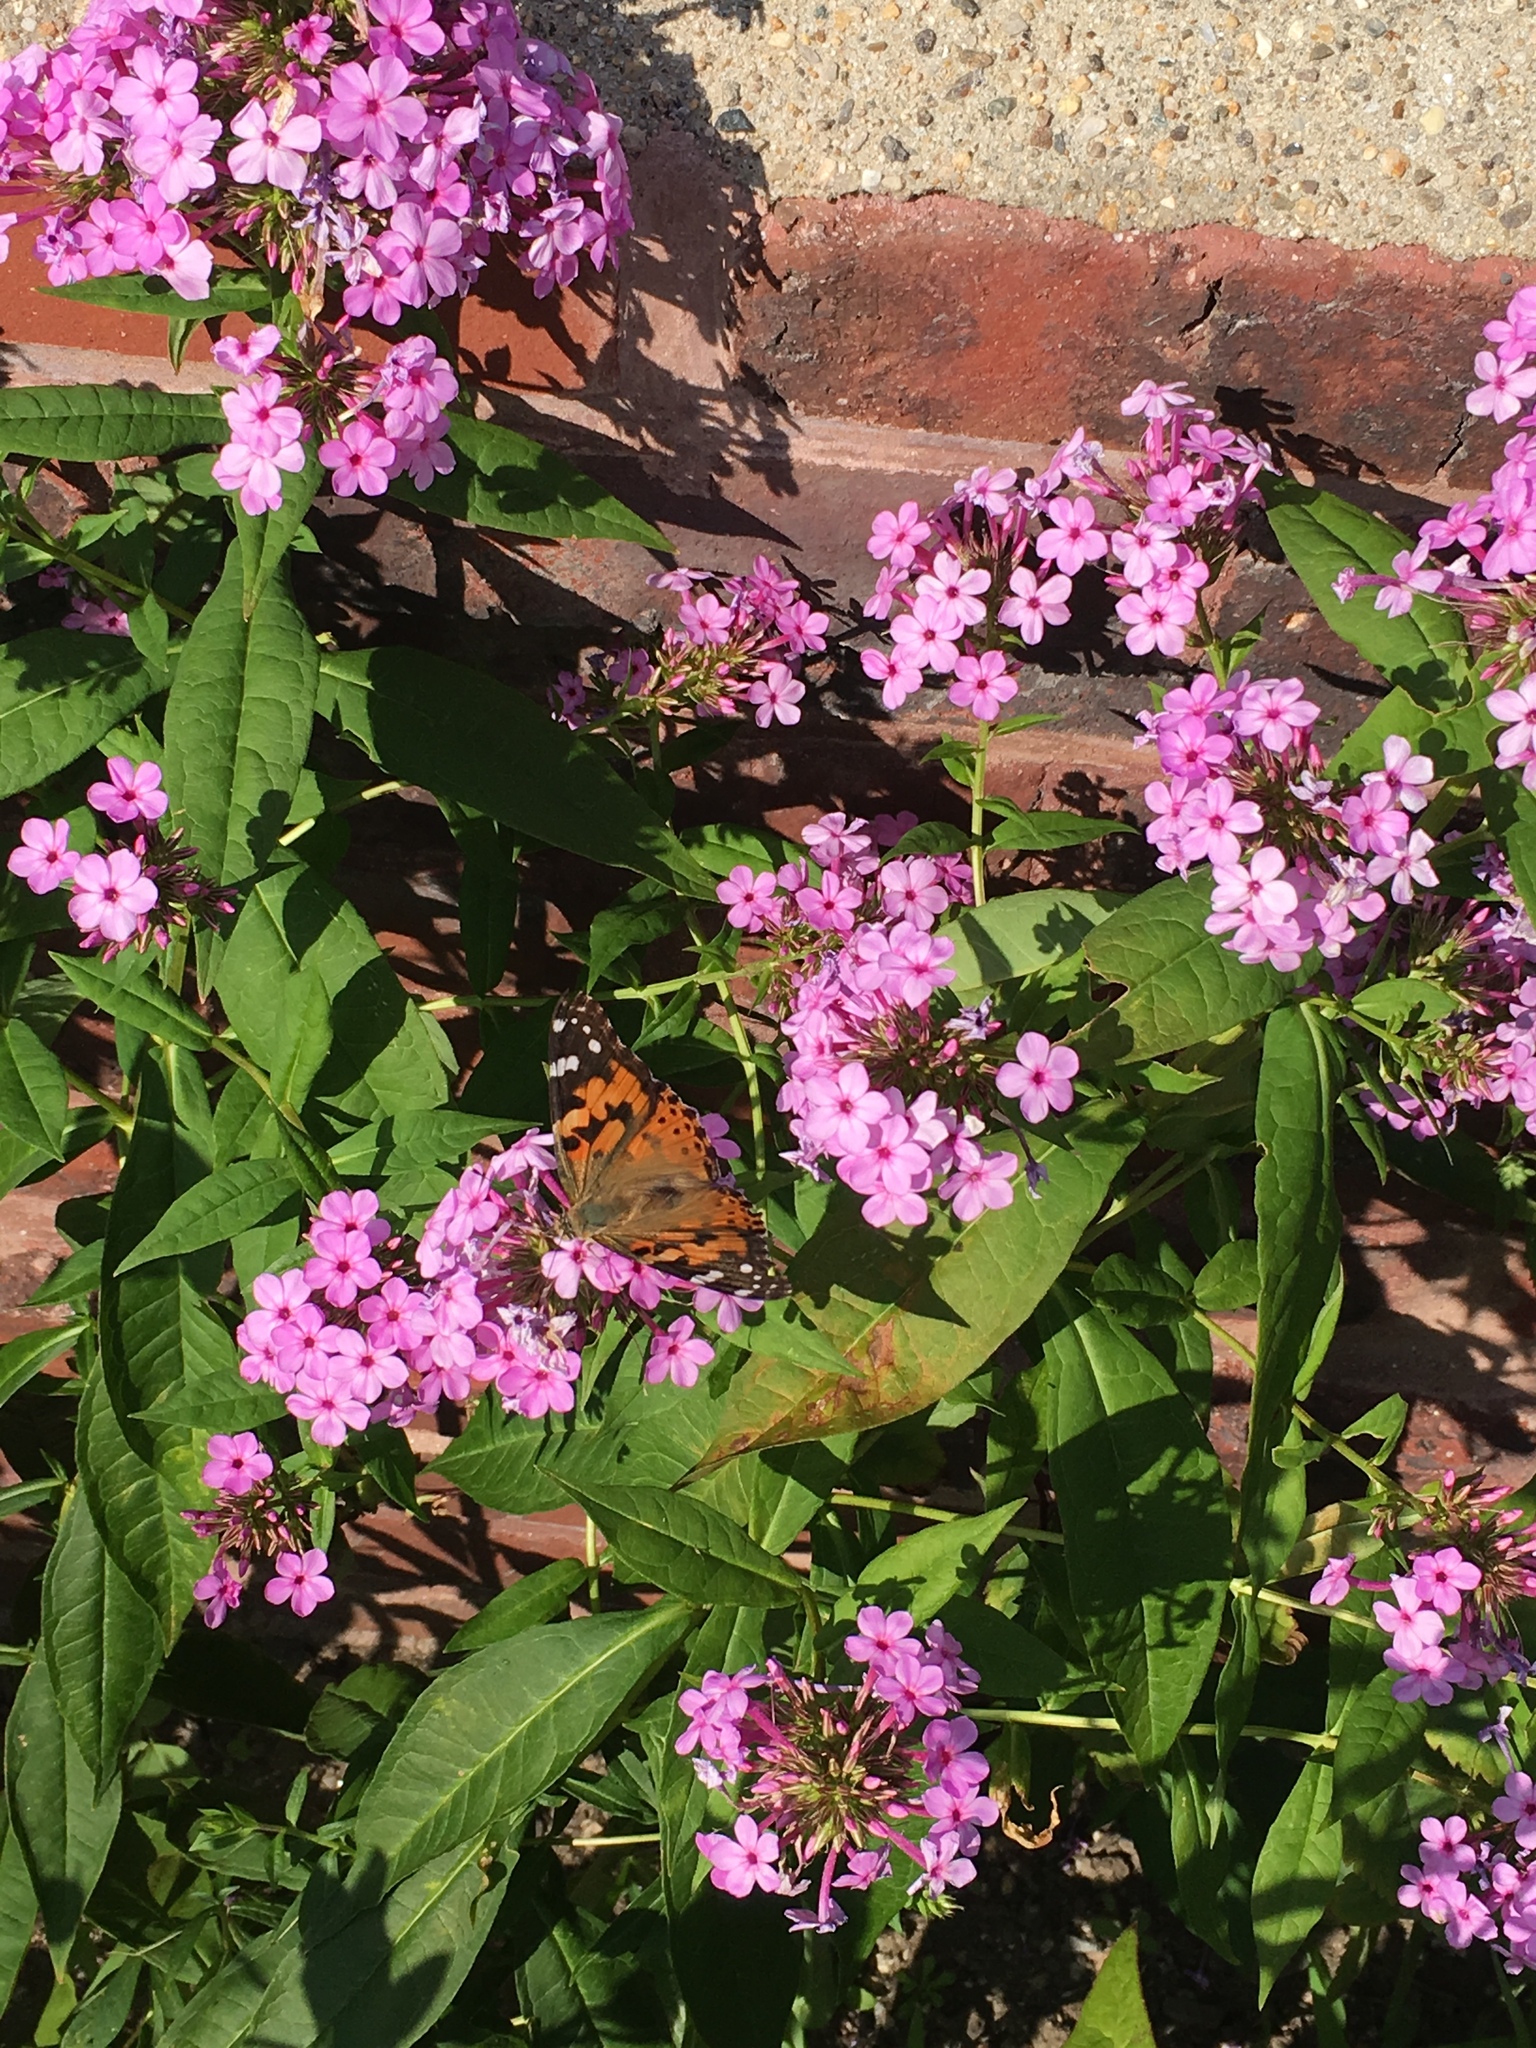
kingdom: Animalia
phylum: Arthropoda
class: Insecta
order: Lepidoptera
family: Nymphalidae
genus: Vanessa
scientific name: Vanessa cardui
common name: Painted lady
